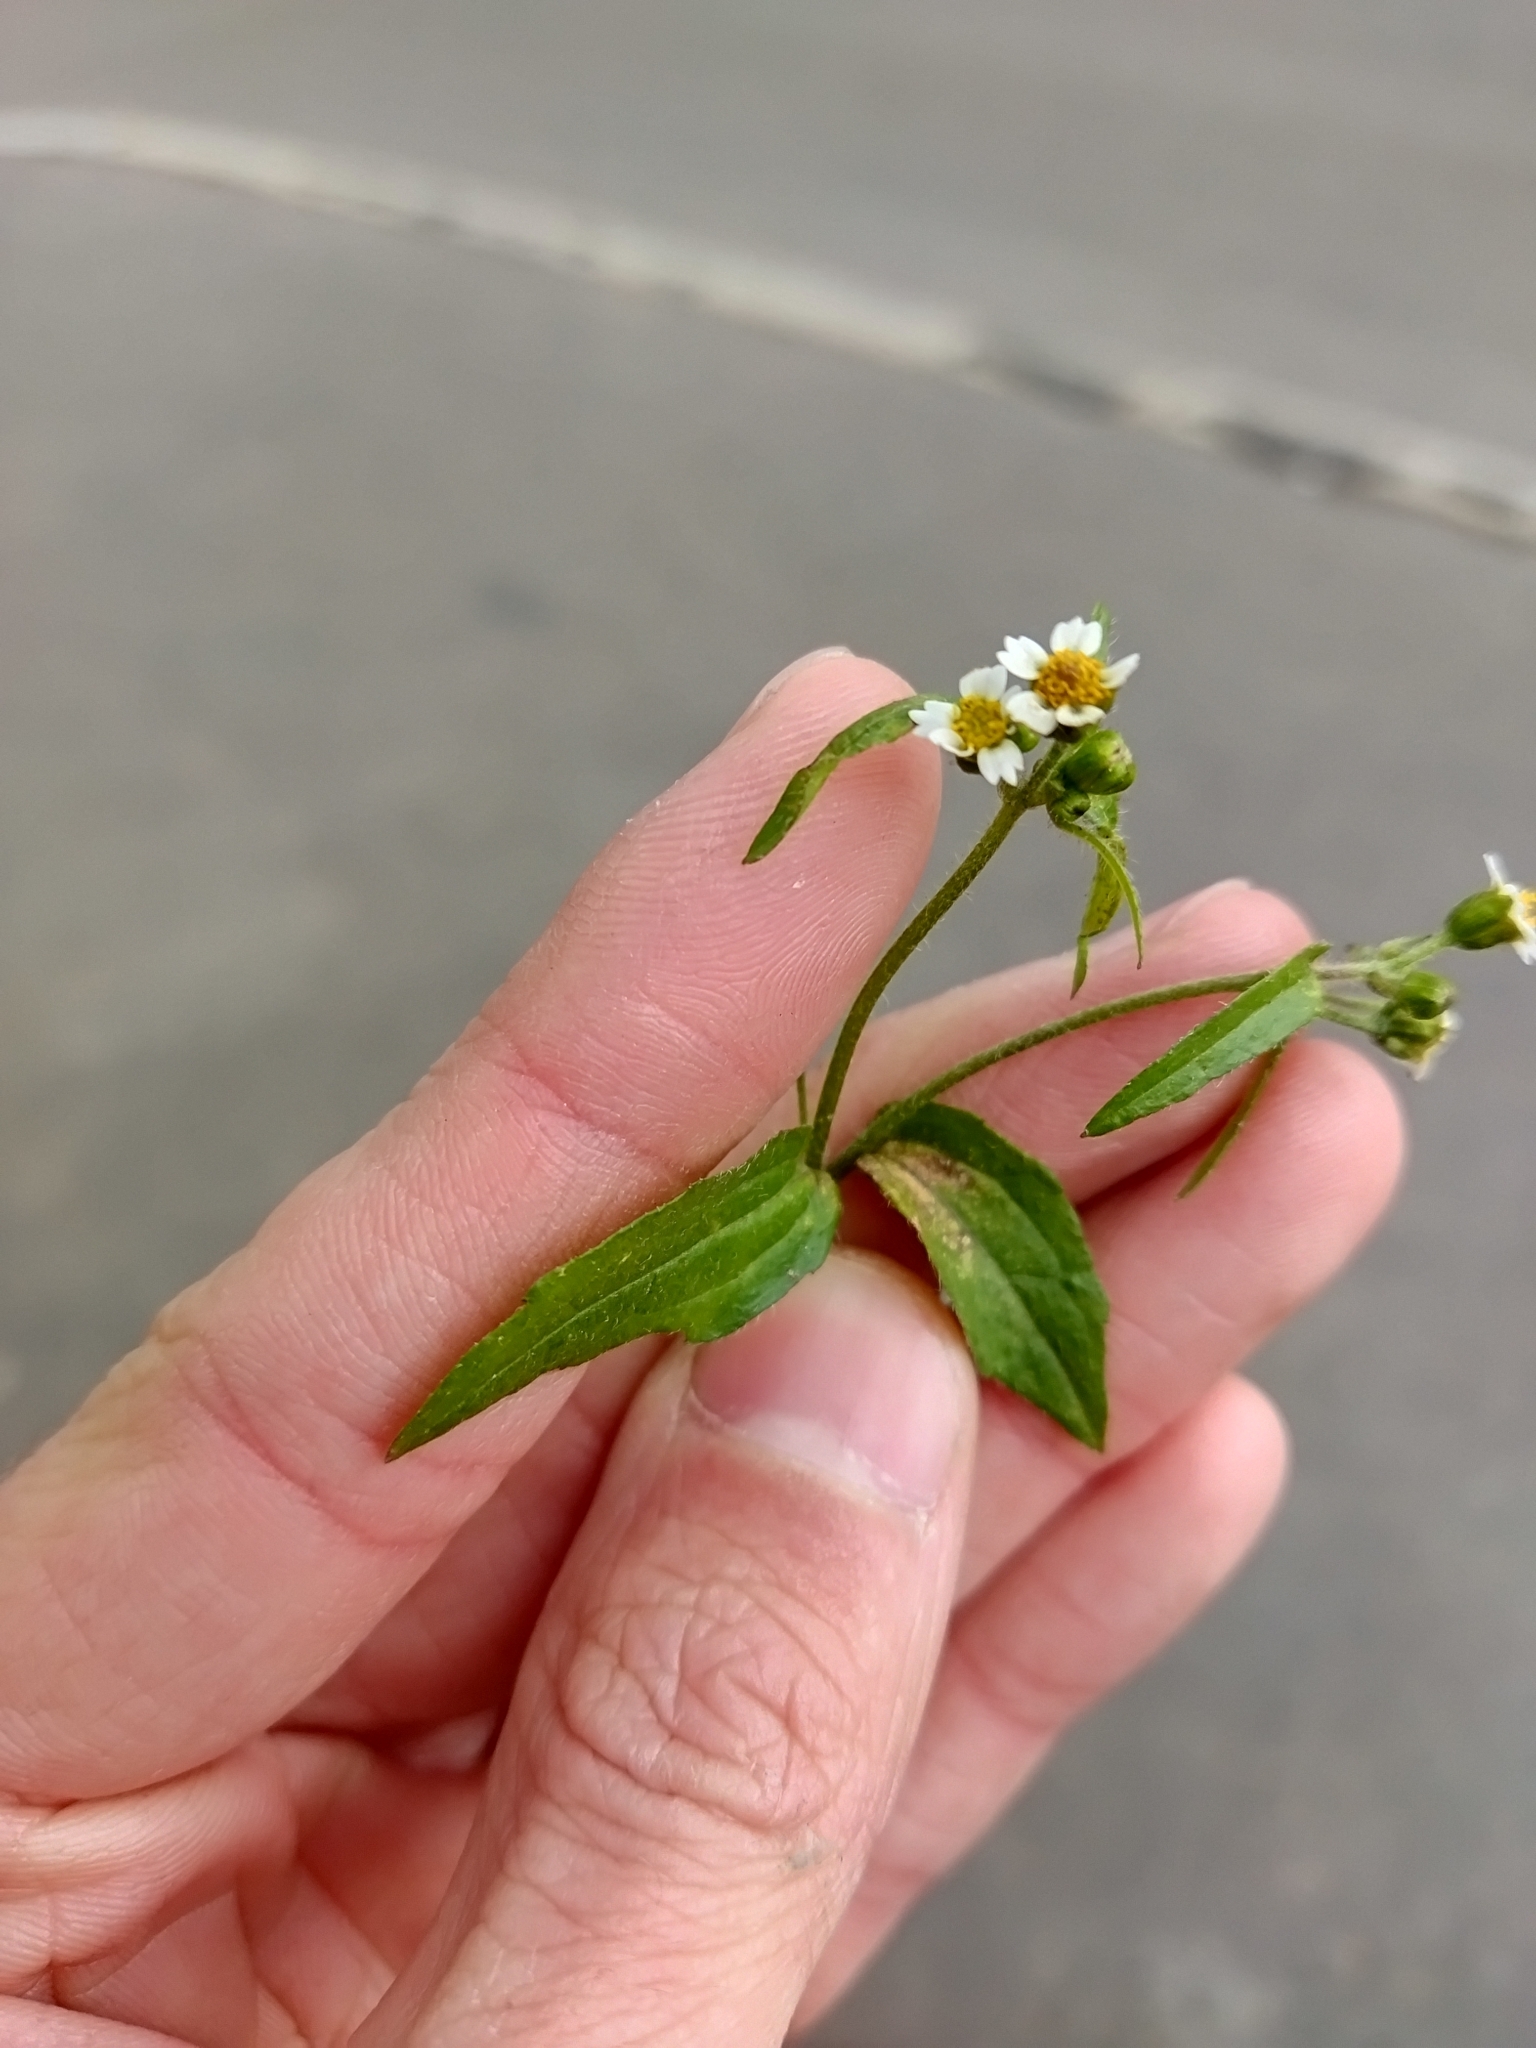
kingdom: Plantae
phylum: Tracheophyta
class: Magnoliopsida
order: Asterales
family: Asteraceae
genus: Galinsoga
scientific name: Galinsoga quadriradiata
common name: Shaggy soldier
